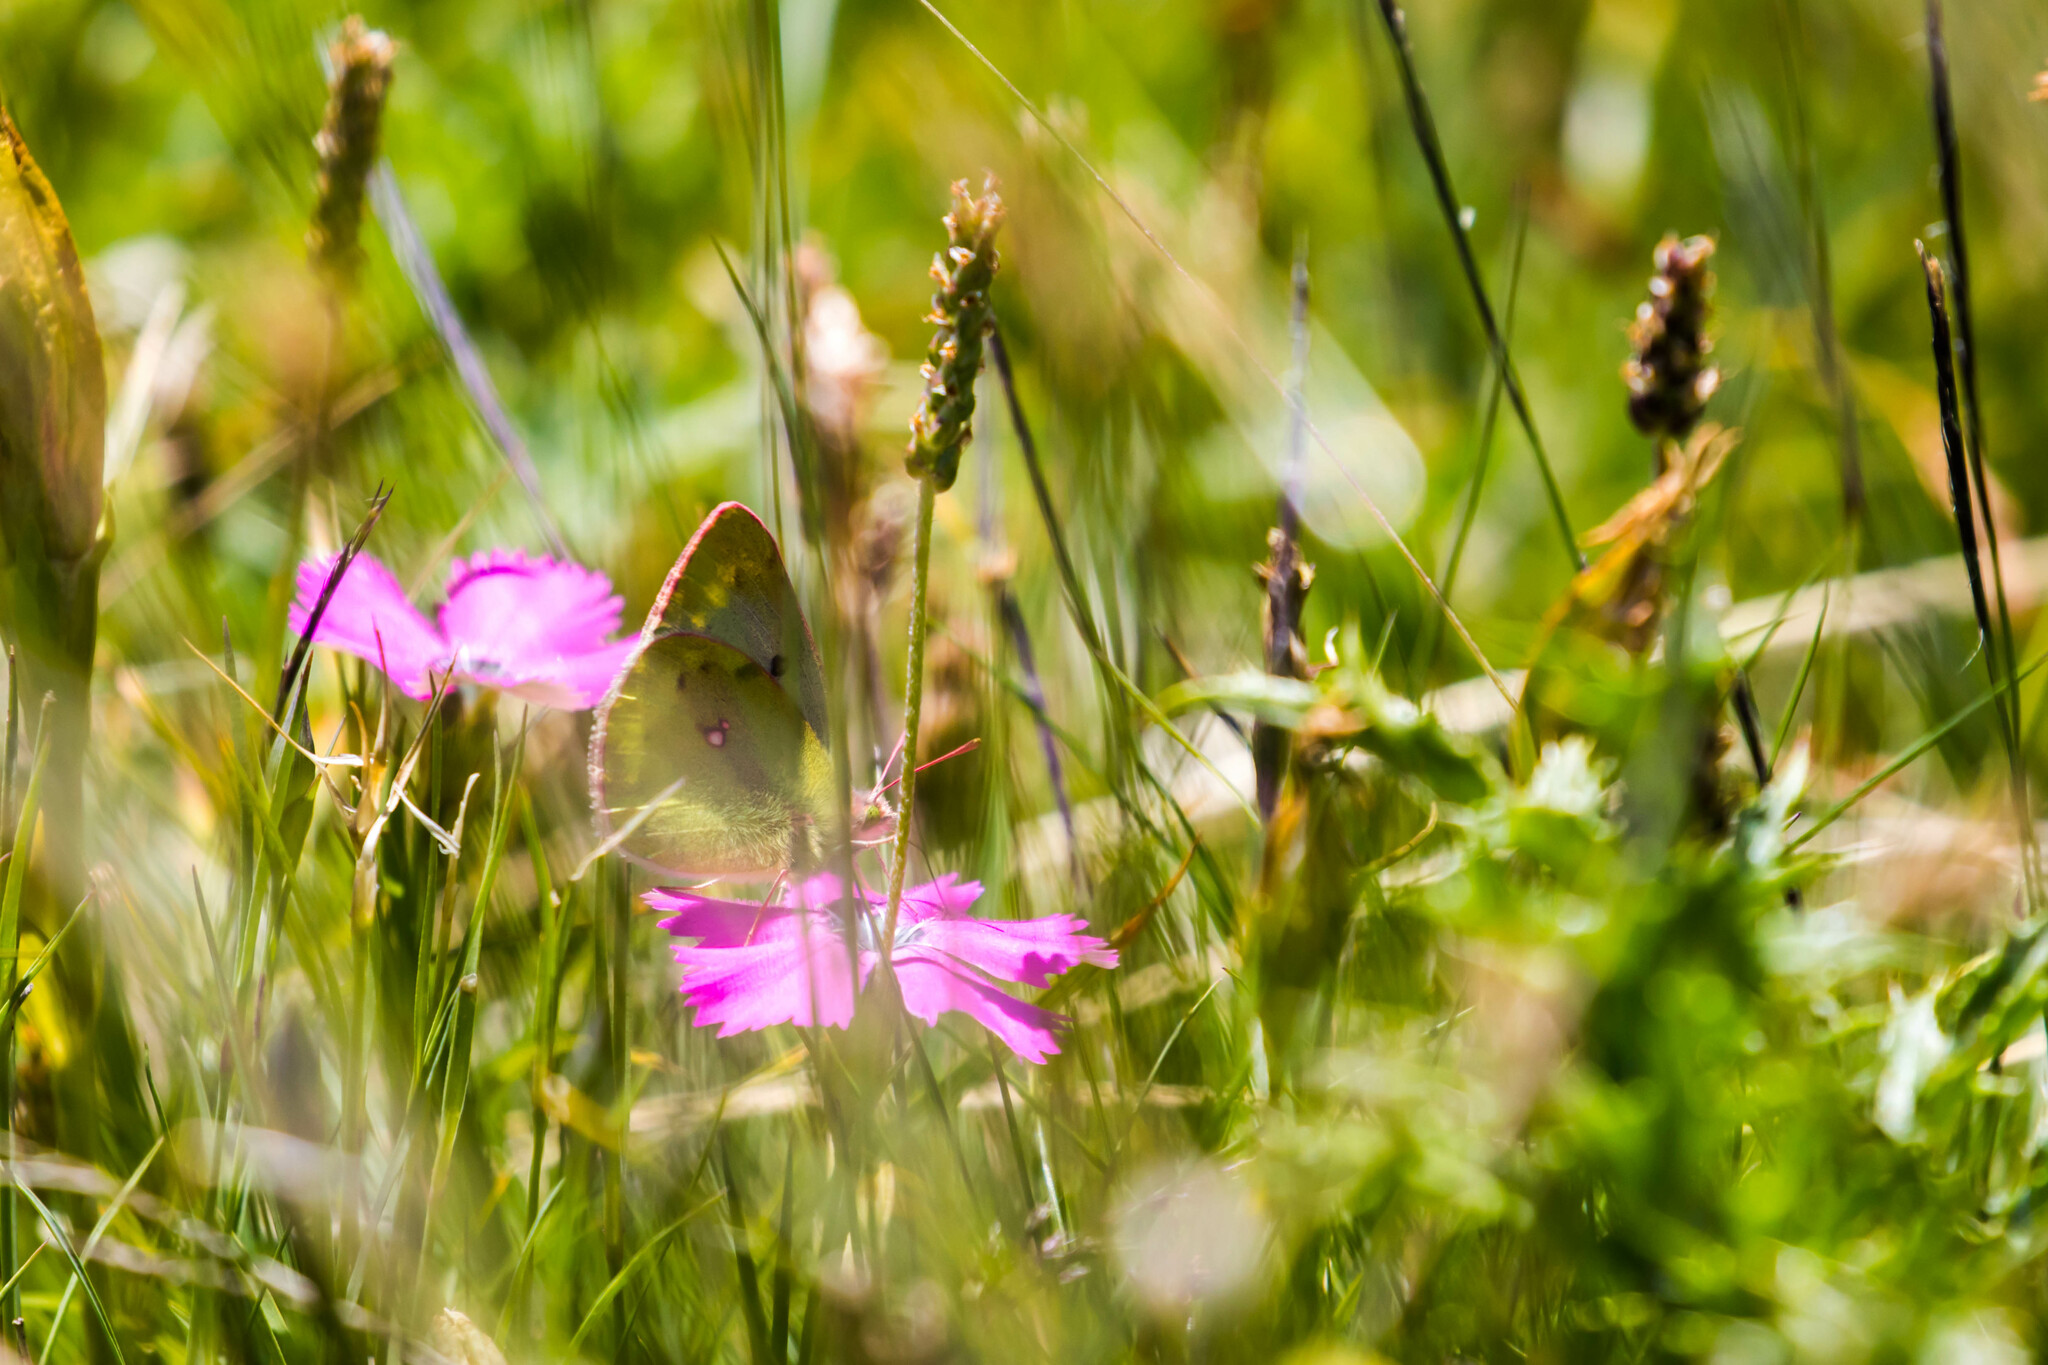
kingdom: Animalia
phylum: Arthropoda
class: Insecta
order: Lepidoptera
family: Pieridae
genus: Colias
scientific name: Colias phicomone
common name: Mountain clouded yellow
